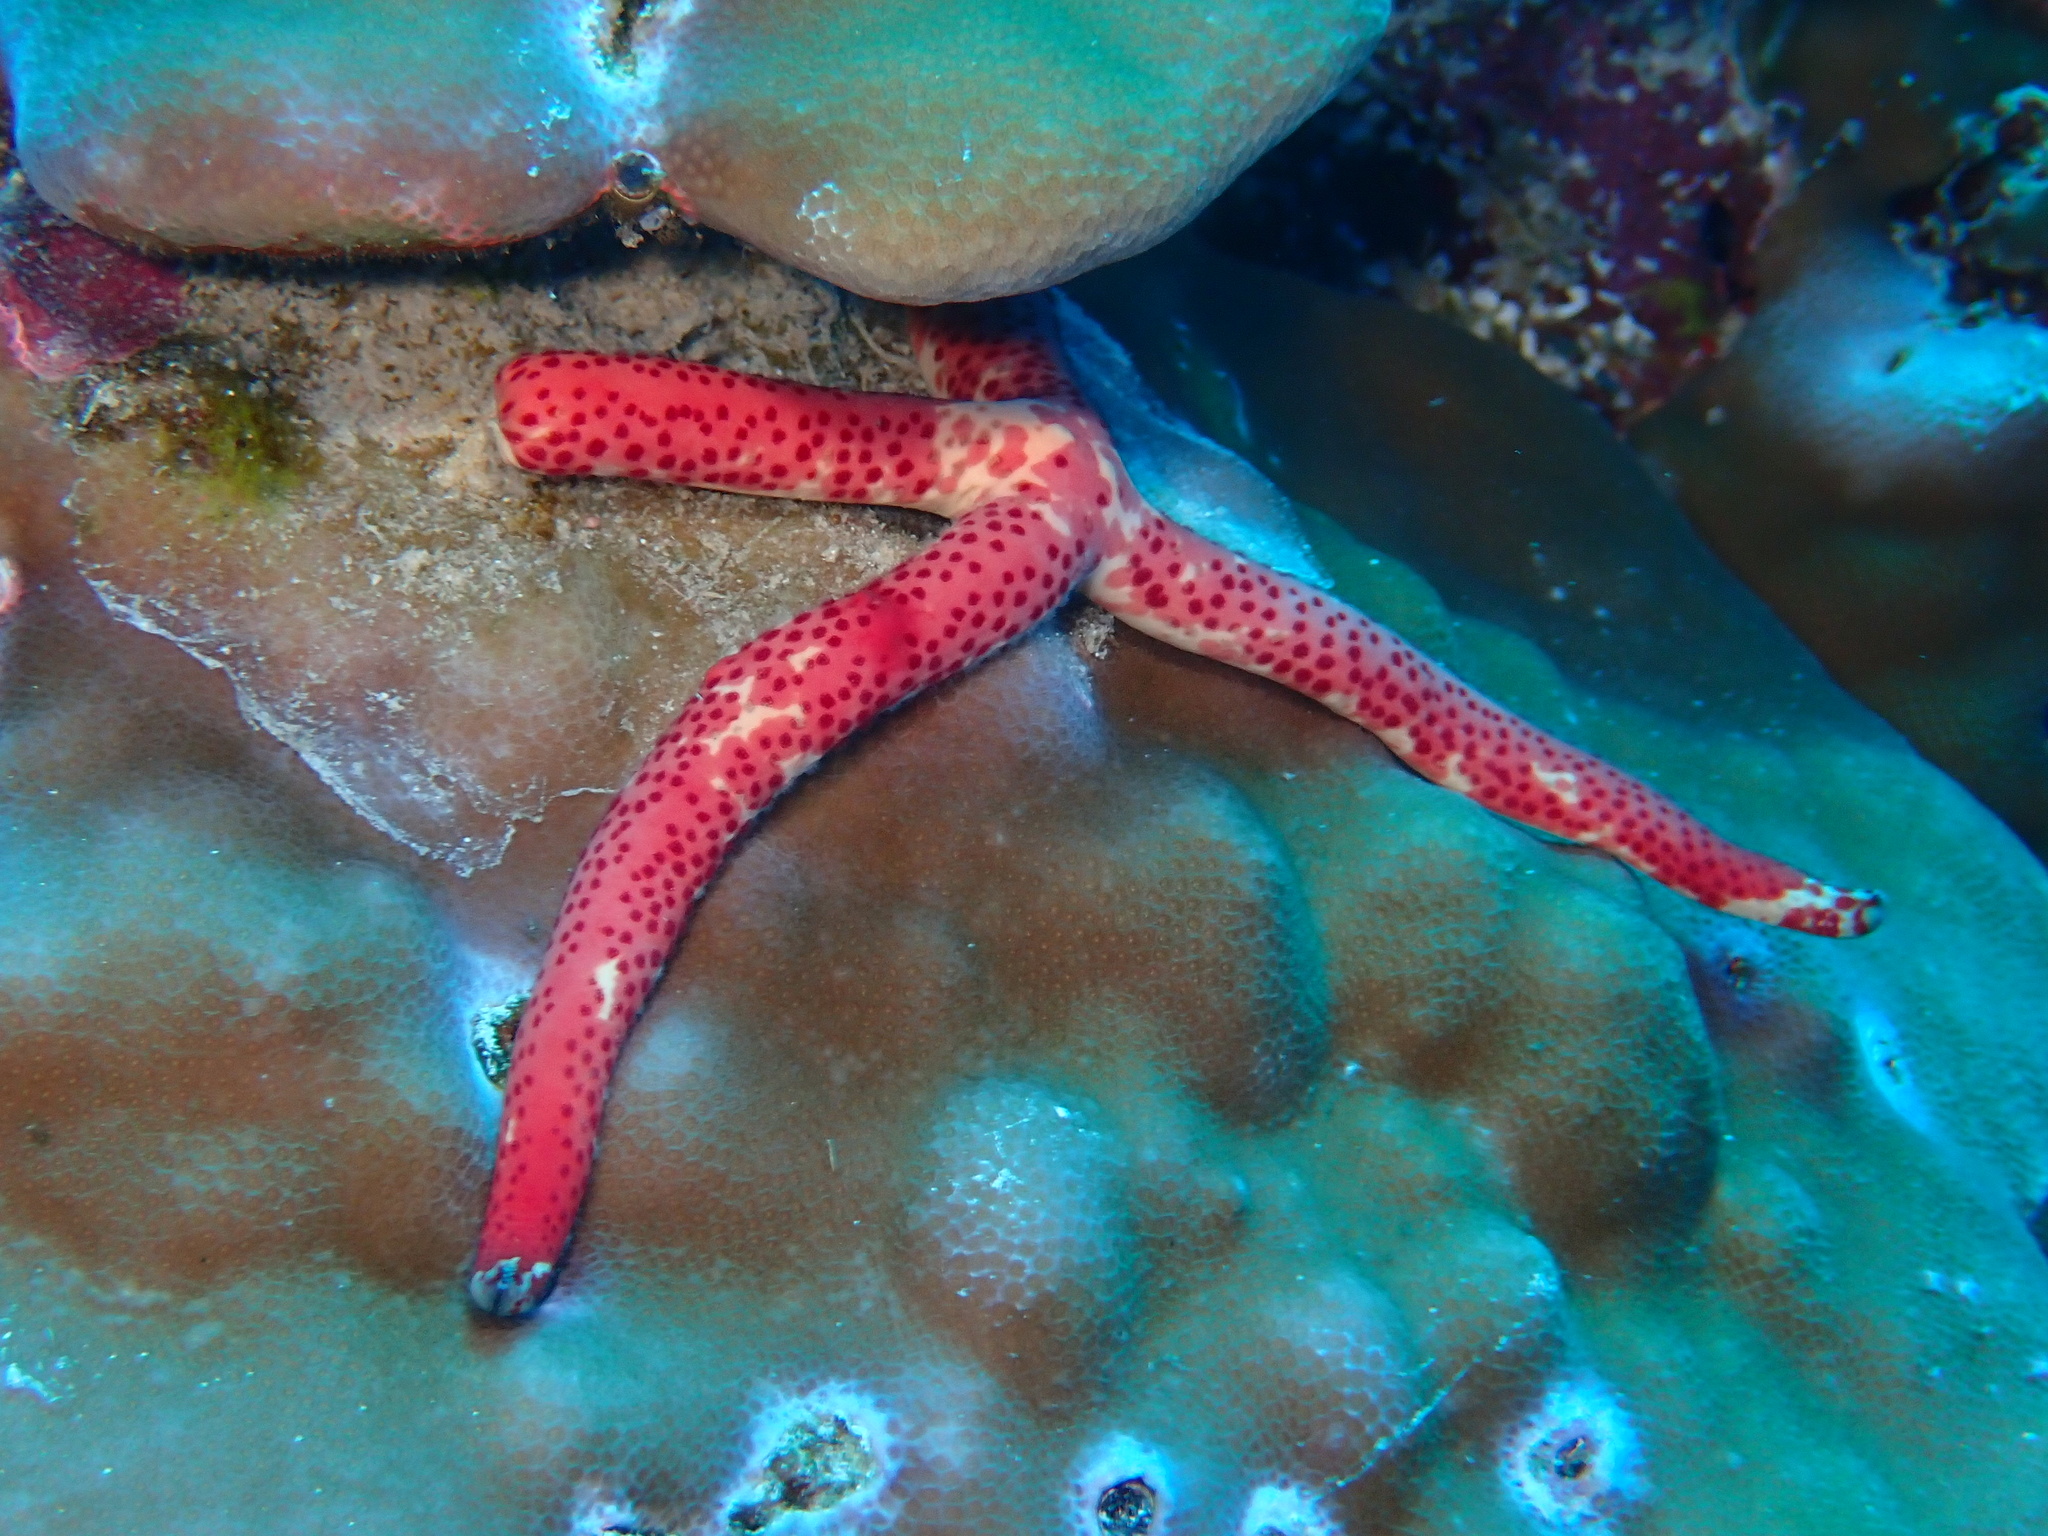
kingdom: Animalia
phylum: Echinodermata
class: Asteroidea
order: Valvatida
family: Ophidiasteridae
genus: Linckia
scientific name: Linckia multifora
